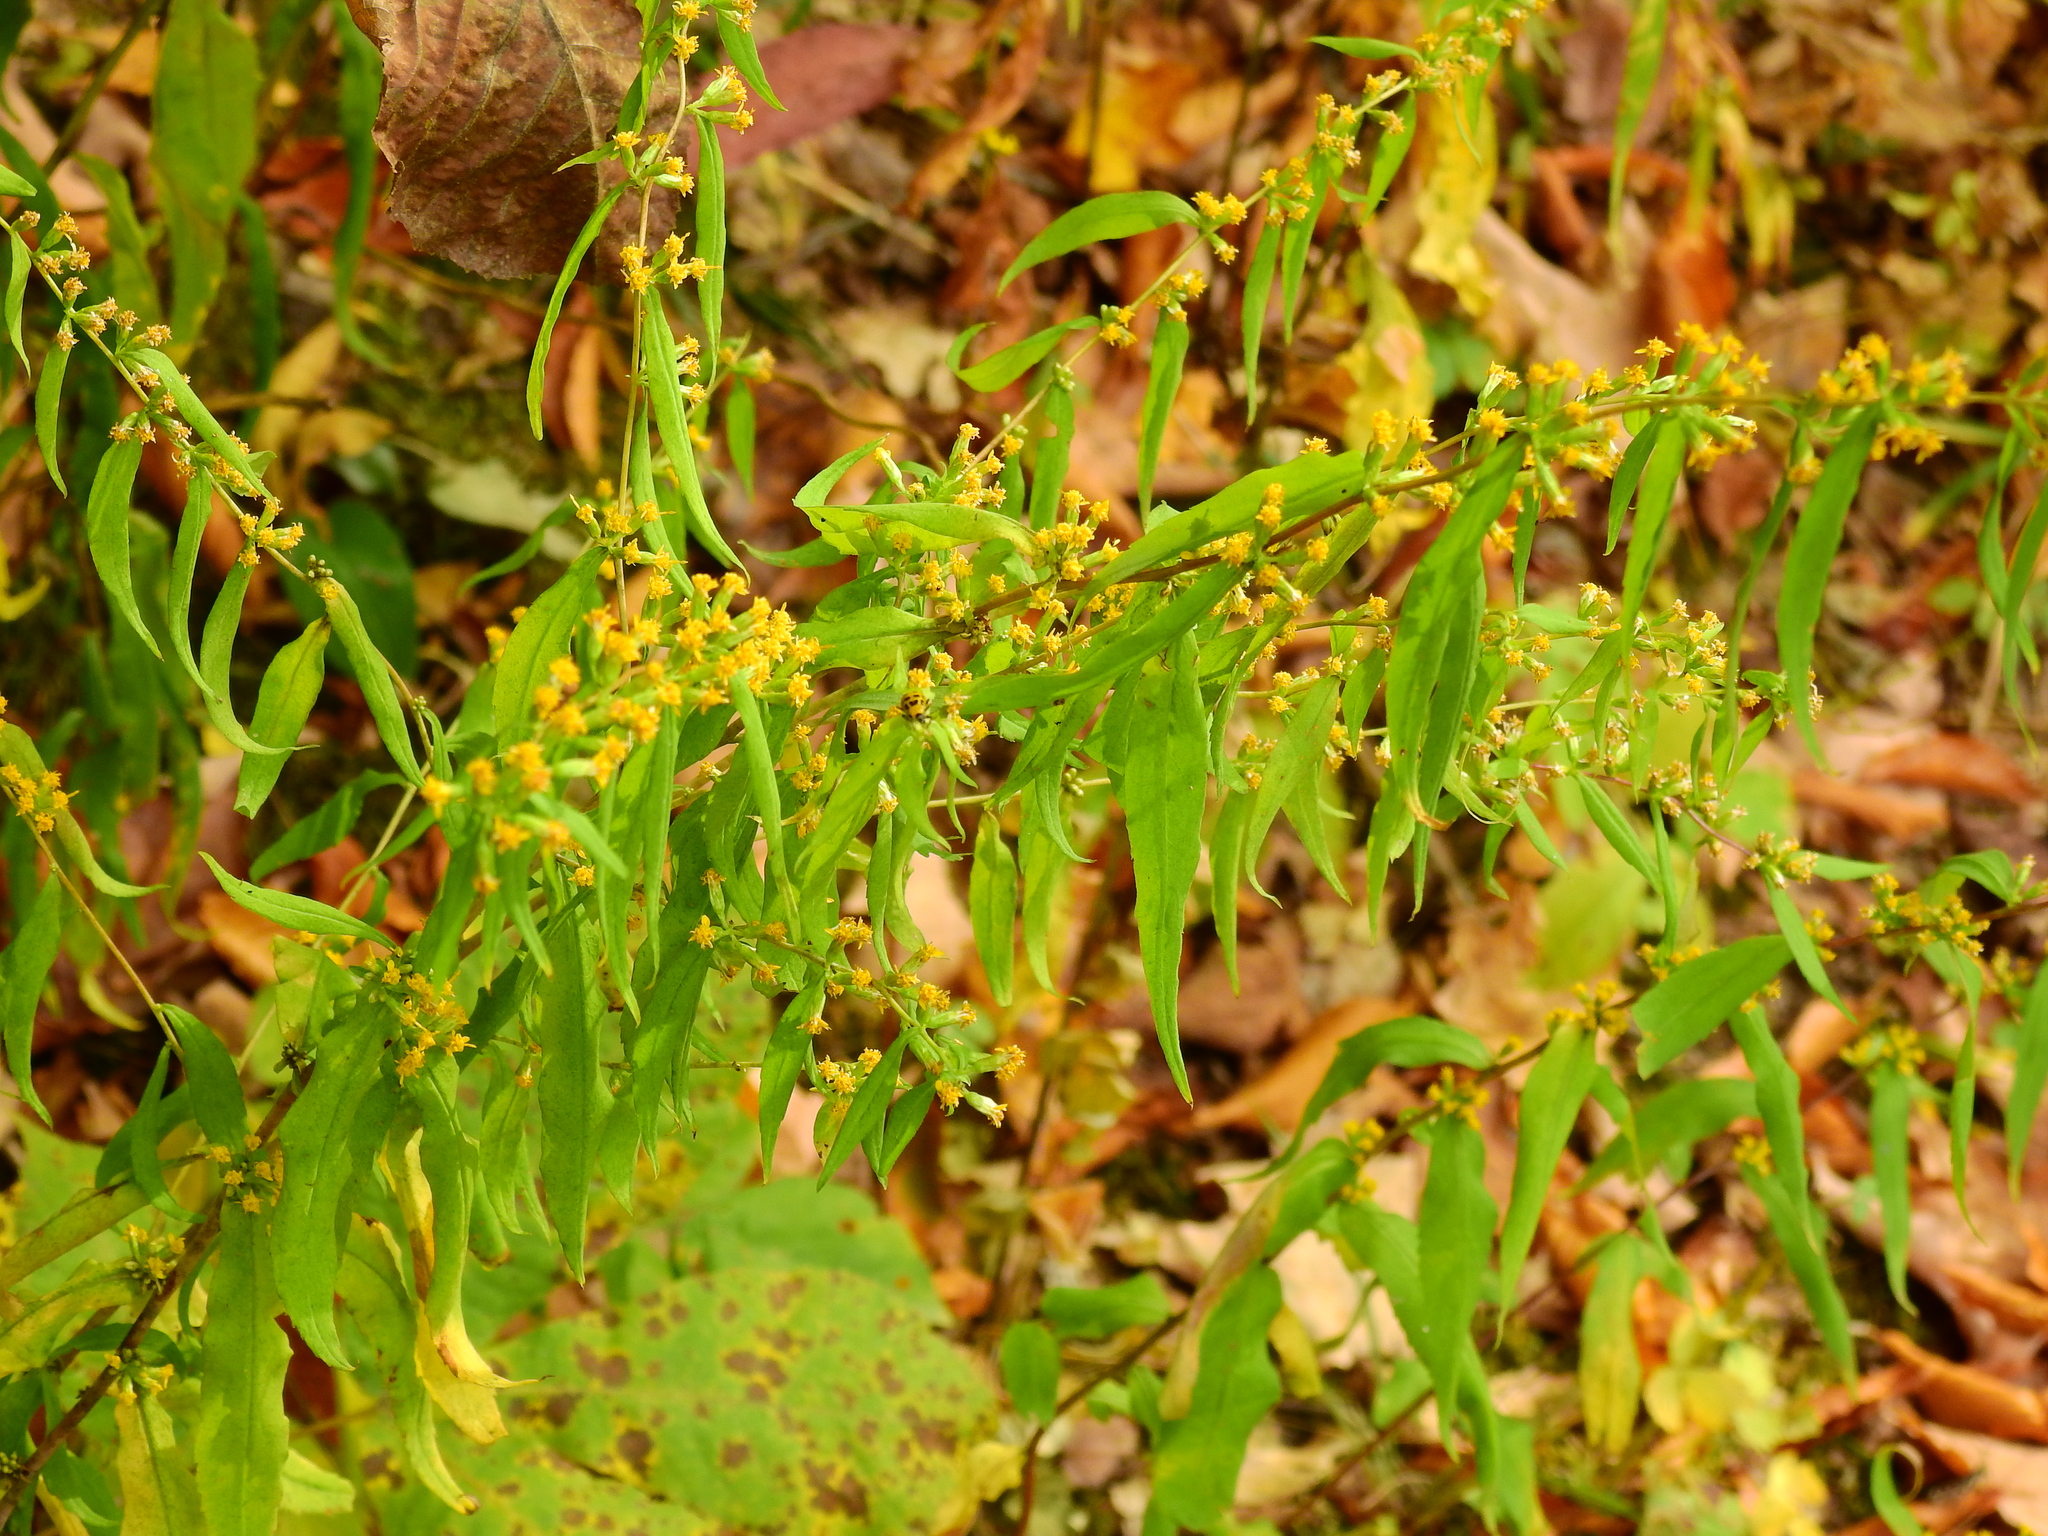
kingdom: Plantae
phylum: Tracheophyta
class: Magnoliopsida
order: Asterales
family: Asteraceae
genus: Solidago
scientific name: Solidago caesia
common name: Woodland goldenrod
